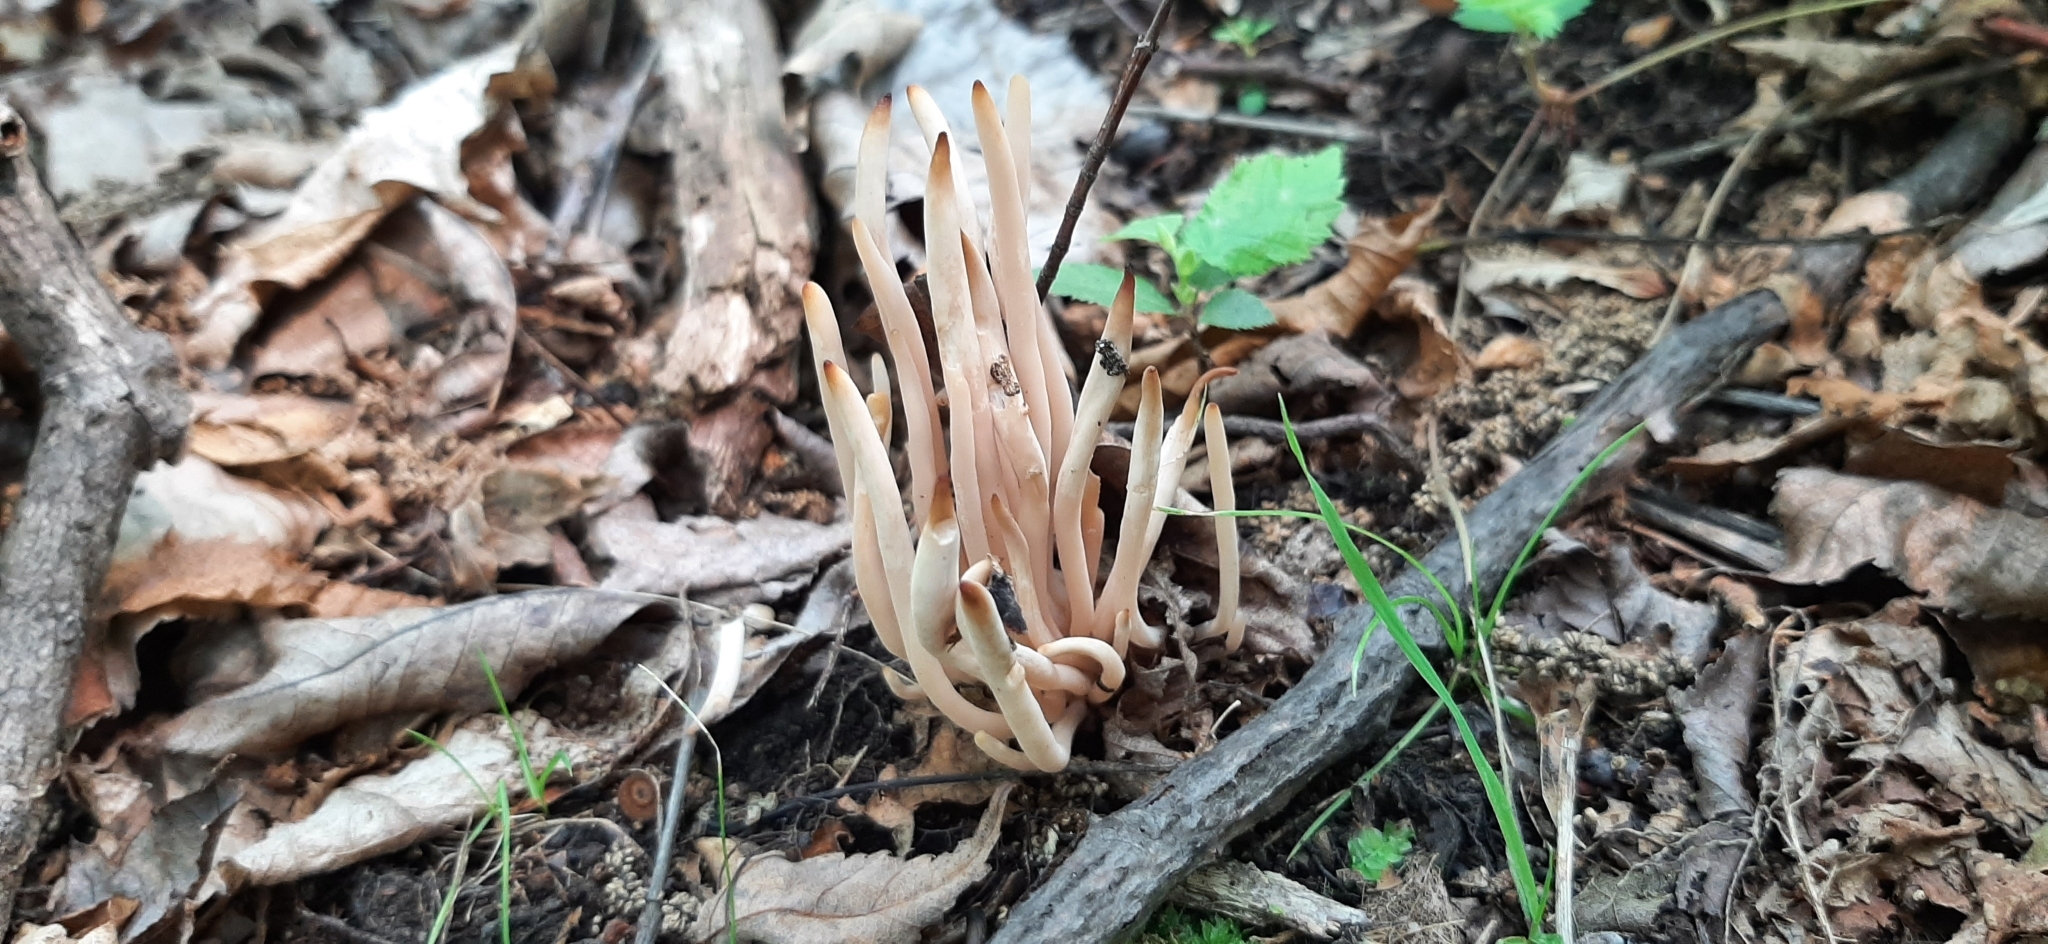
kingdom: Fungi
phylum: Basidiomycota
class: Agaricomycetes
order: Agaricales
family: Clavariaceae
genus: Clavaria
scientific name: Clavaria fragilis
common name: White spindles
